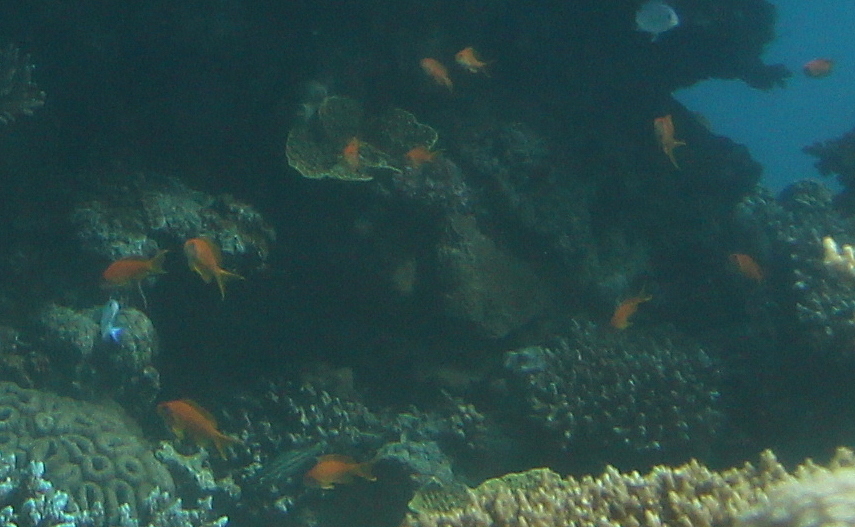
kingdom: Animalia
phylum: Chordata
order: Perciformes
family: Serranidae
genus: Pseudanthias
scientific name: Pseudanthias squamipinnis
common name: Scalefin anthias
